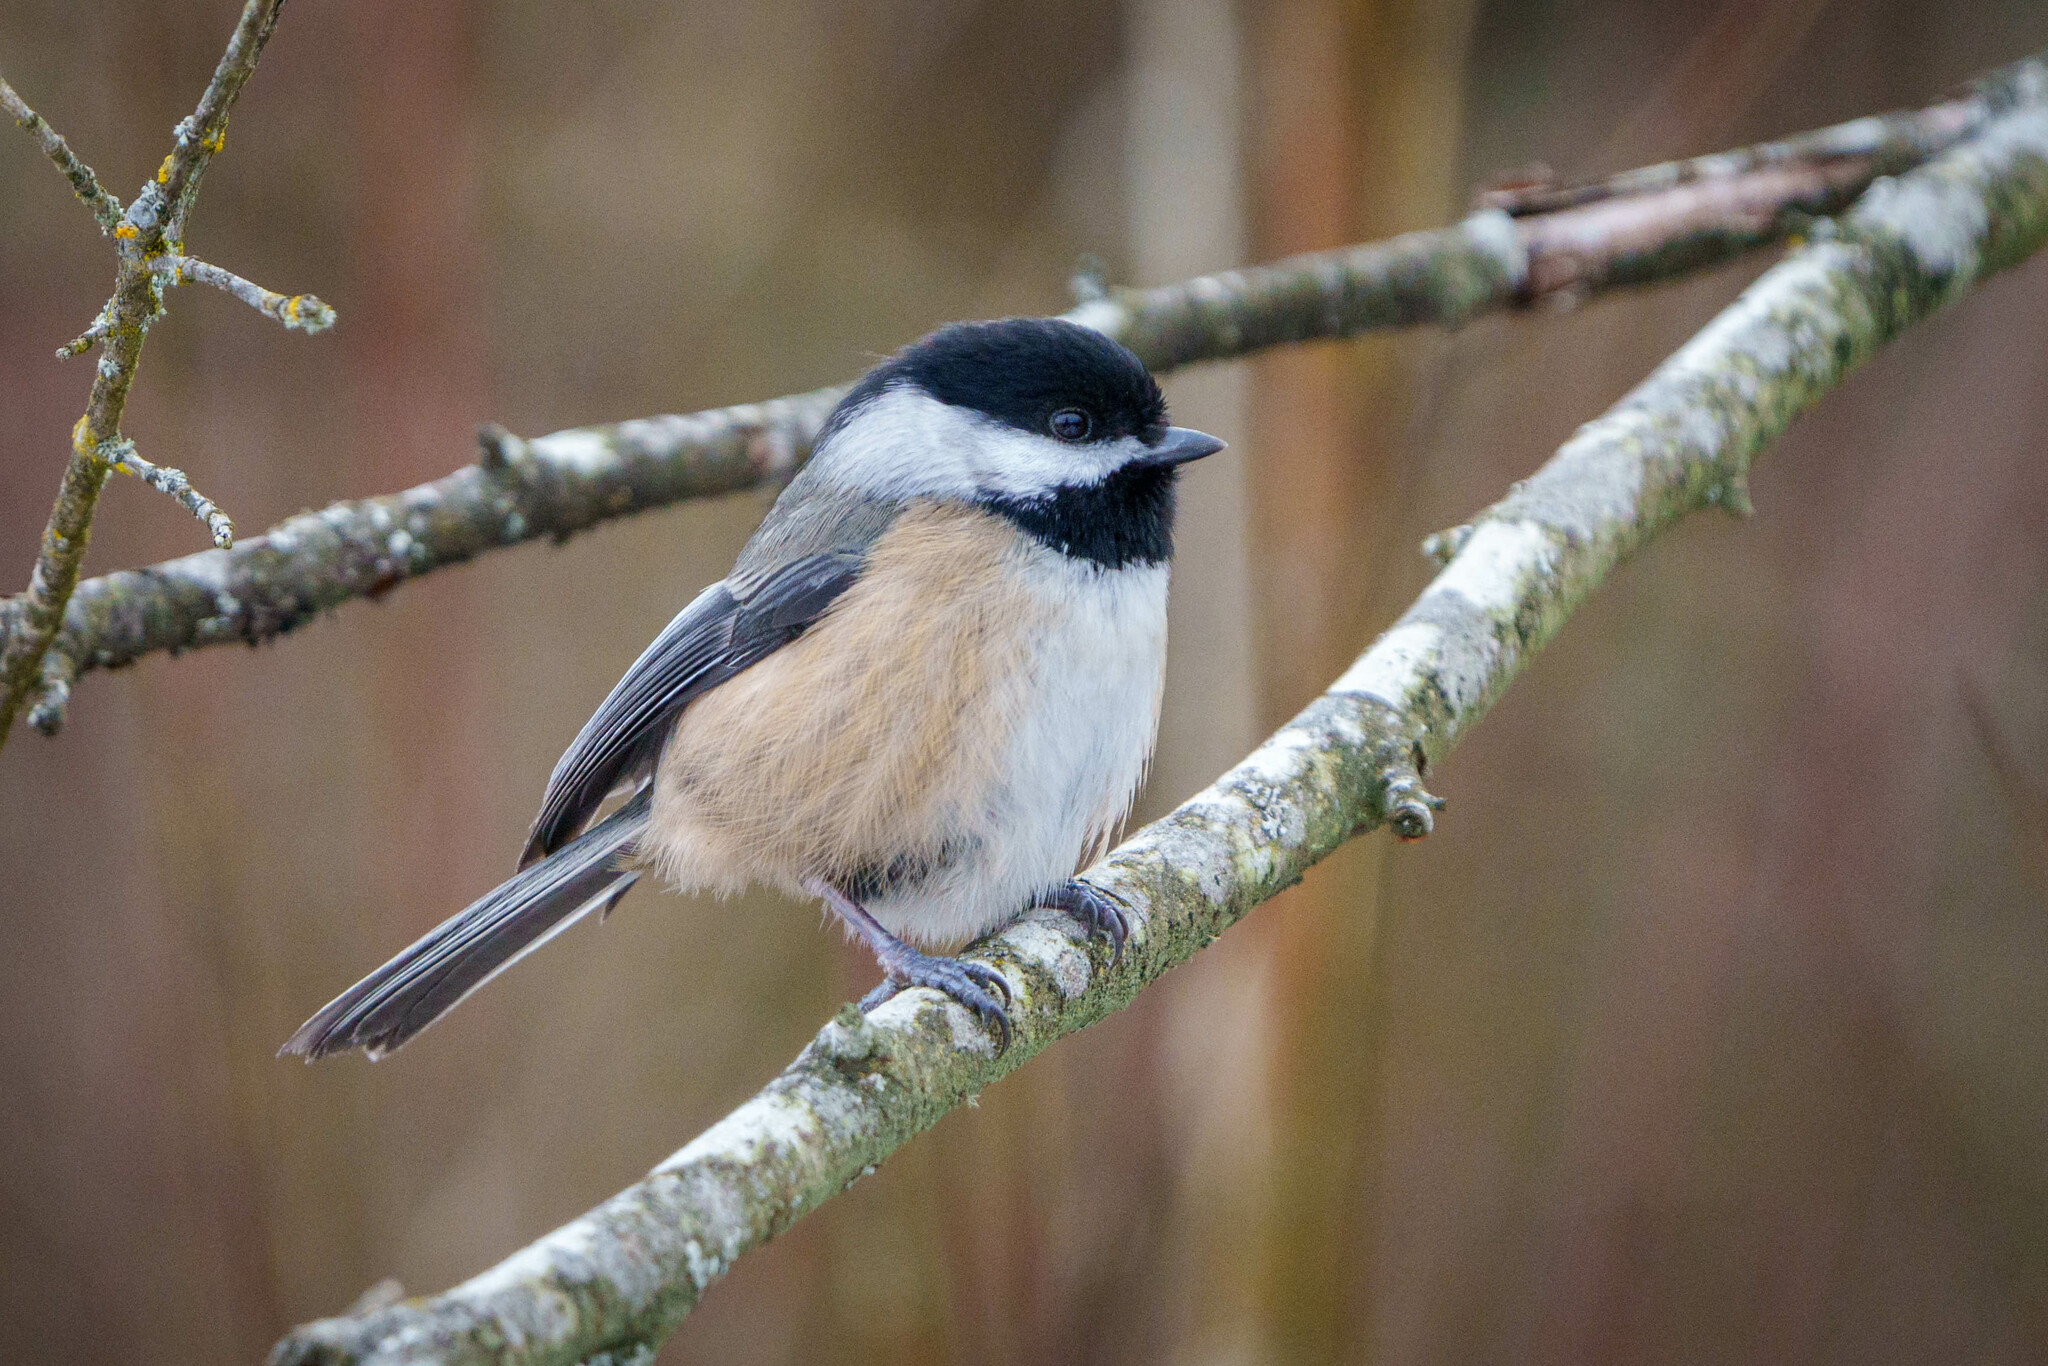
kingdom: Animalia
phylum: Chordata
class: Aves
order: Passeriformes
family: Paridae
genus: Poecile
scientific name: Poecile atricapillus
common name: Black-capped chickadee
